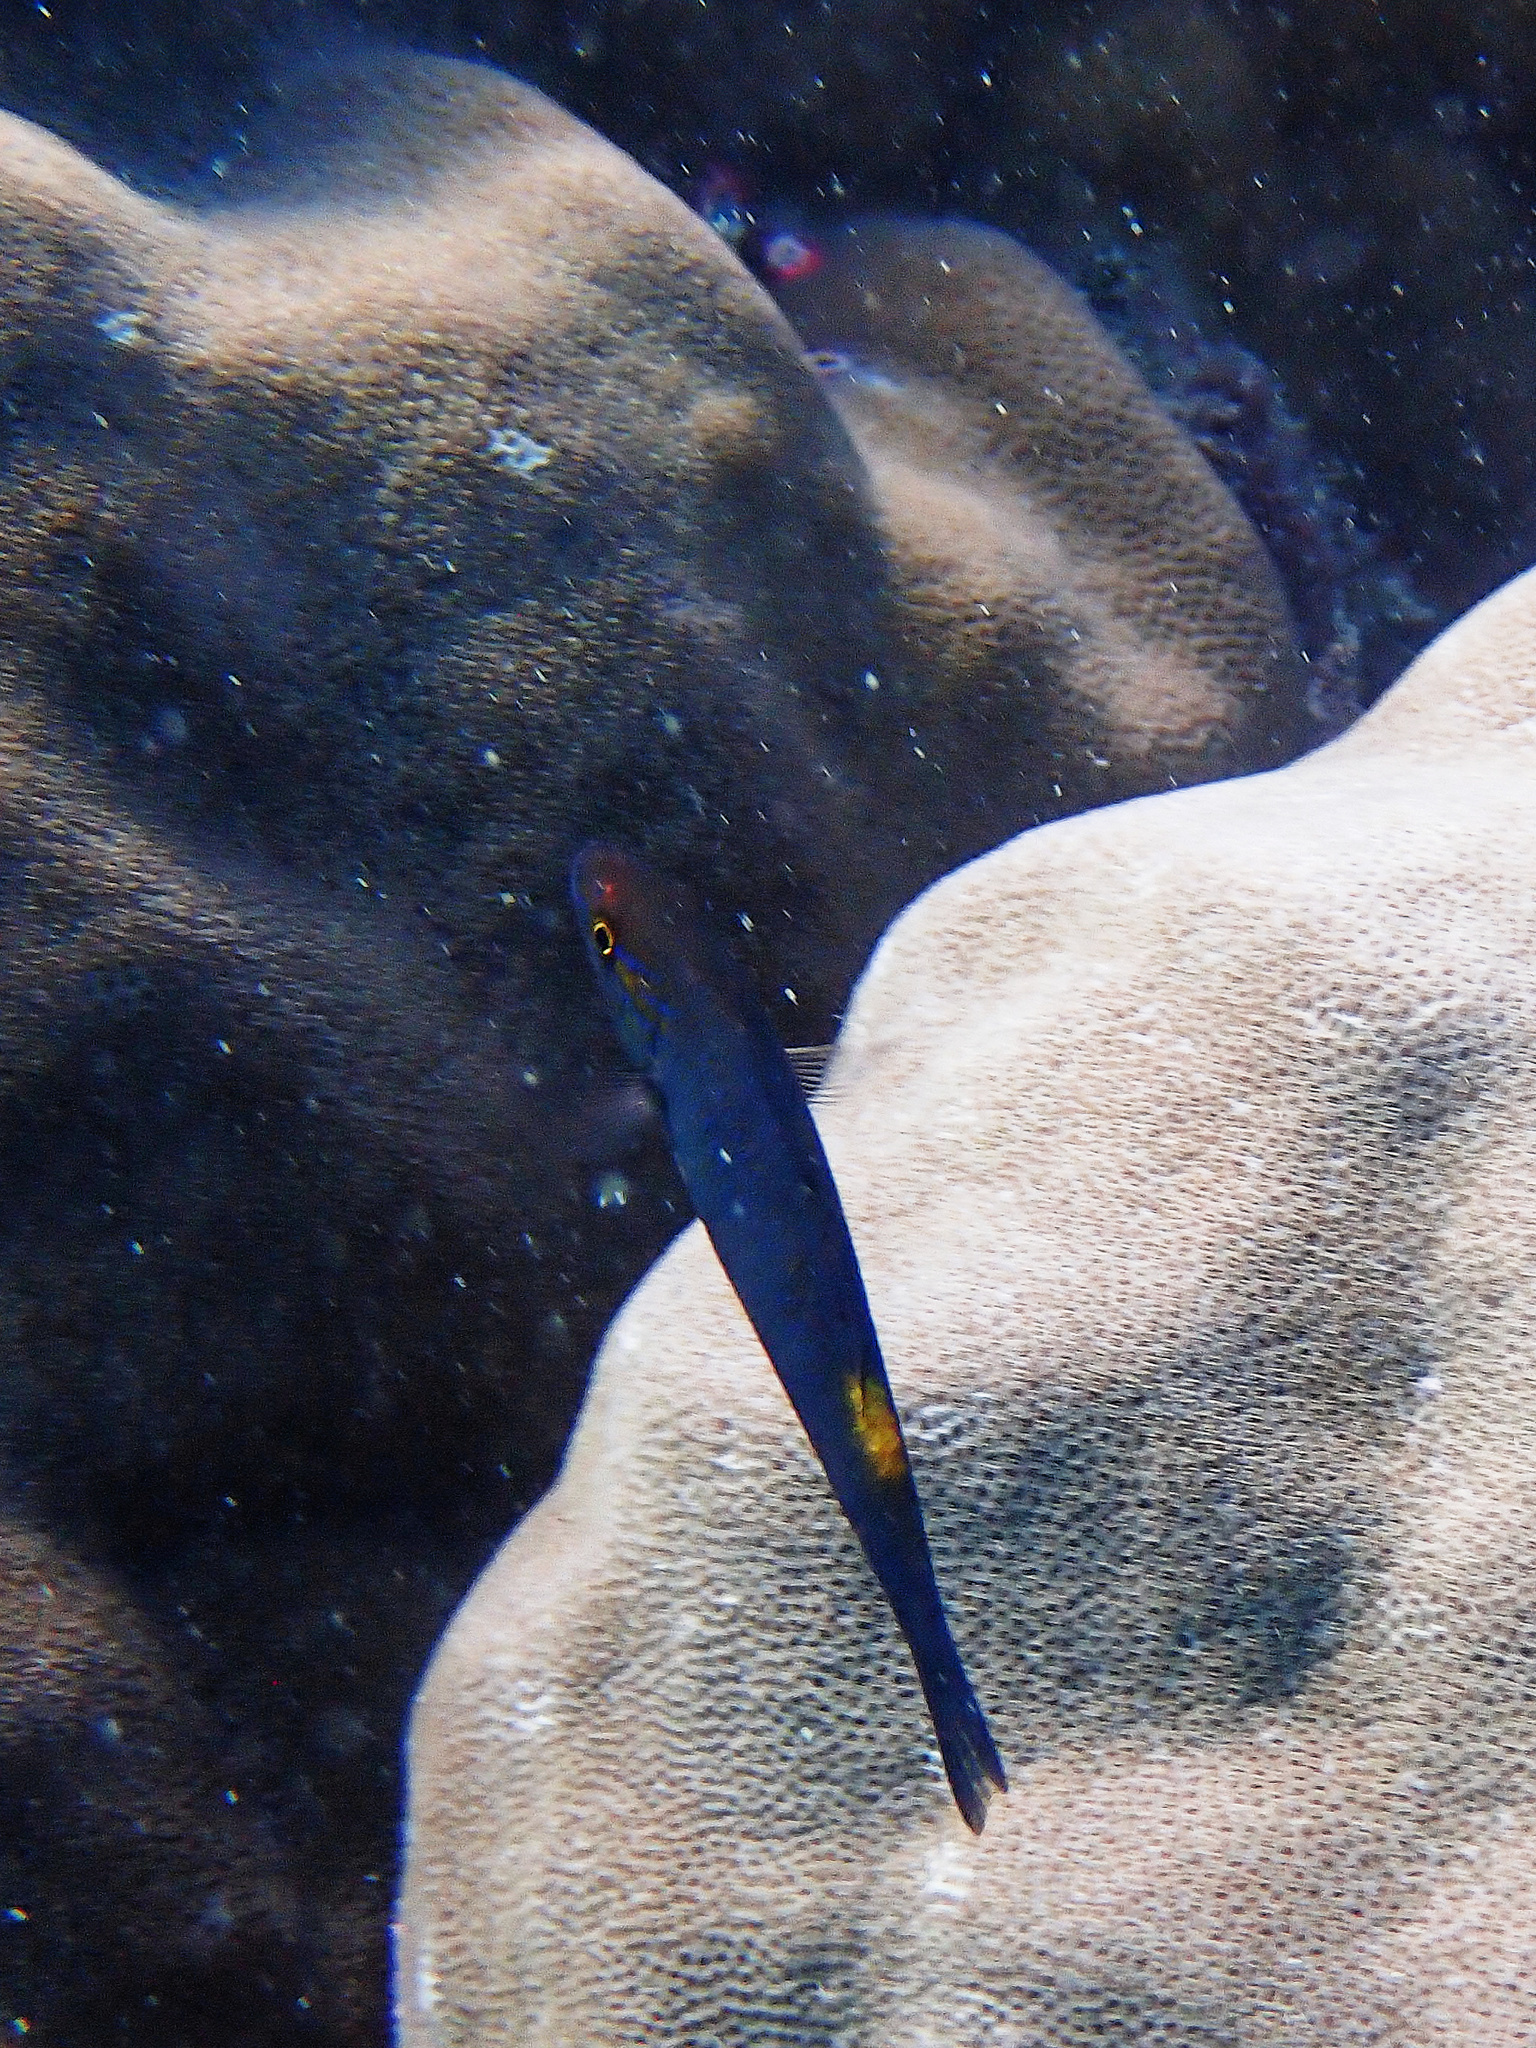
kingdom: Animalia
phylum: Chordata
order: Perciformes
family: Mullidae
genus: Parupeneus
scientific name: Parupeneus cyclostomus
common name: Goldsaddle goatfish
